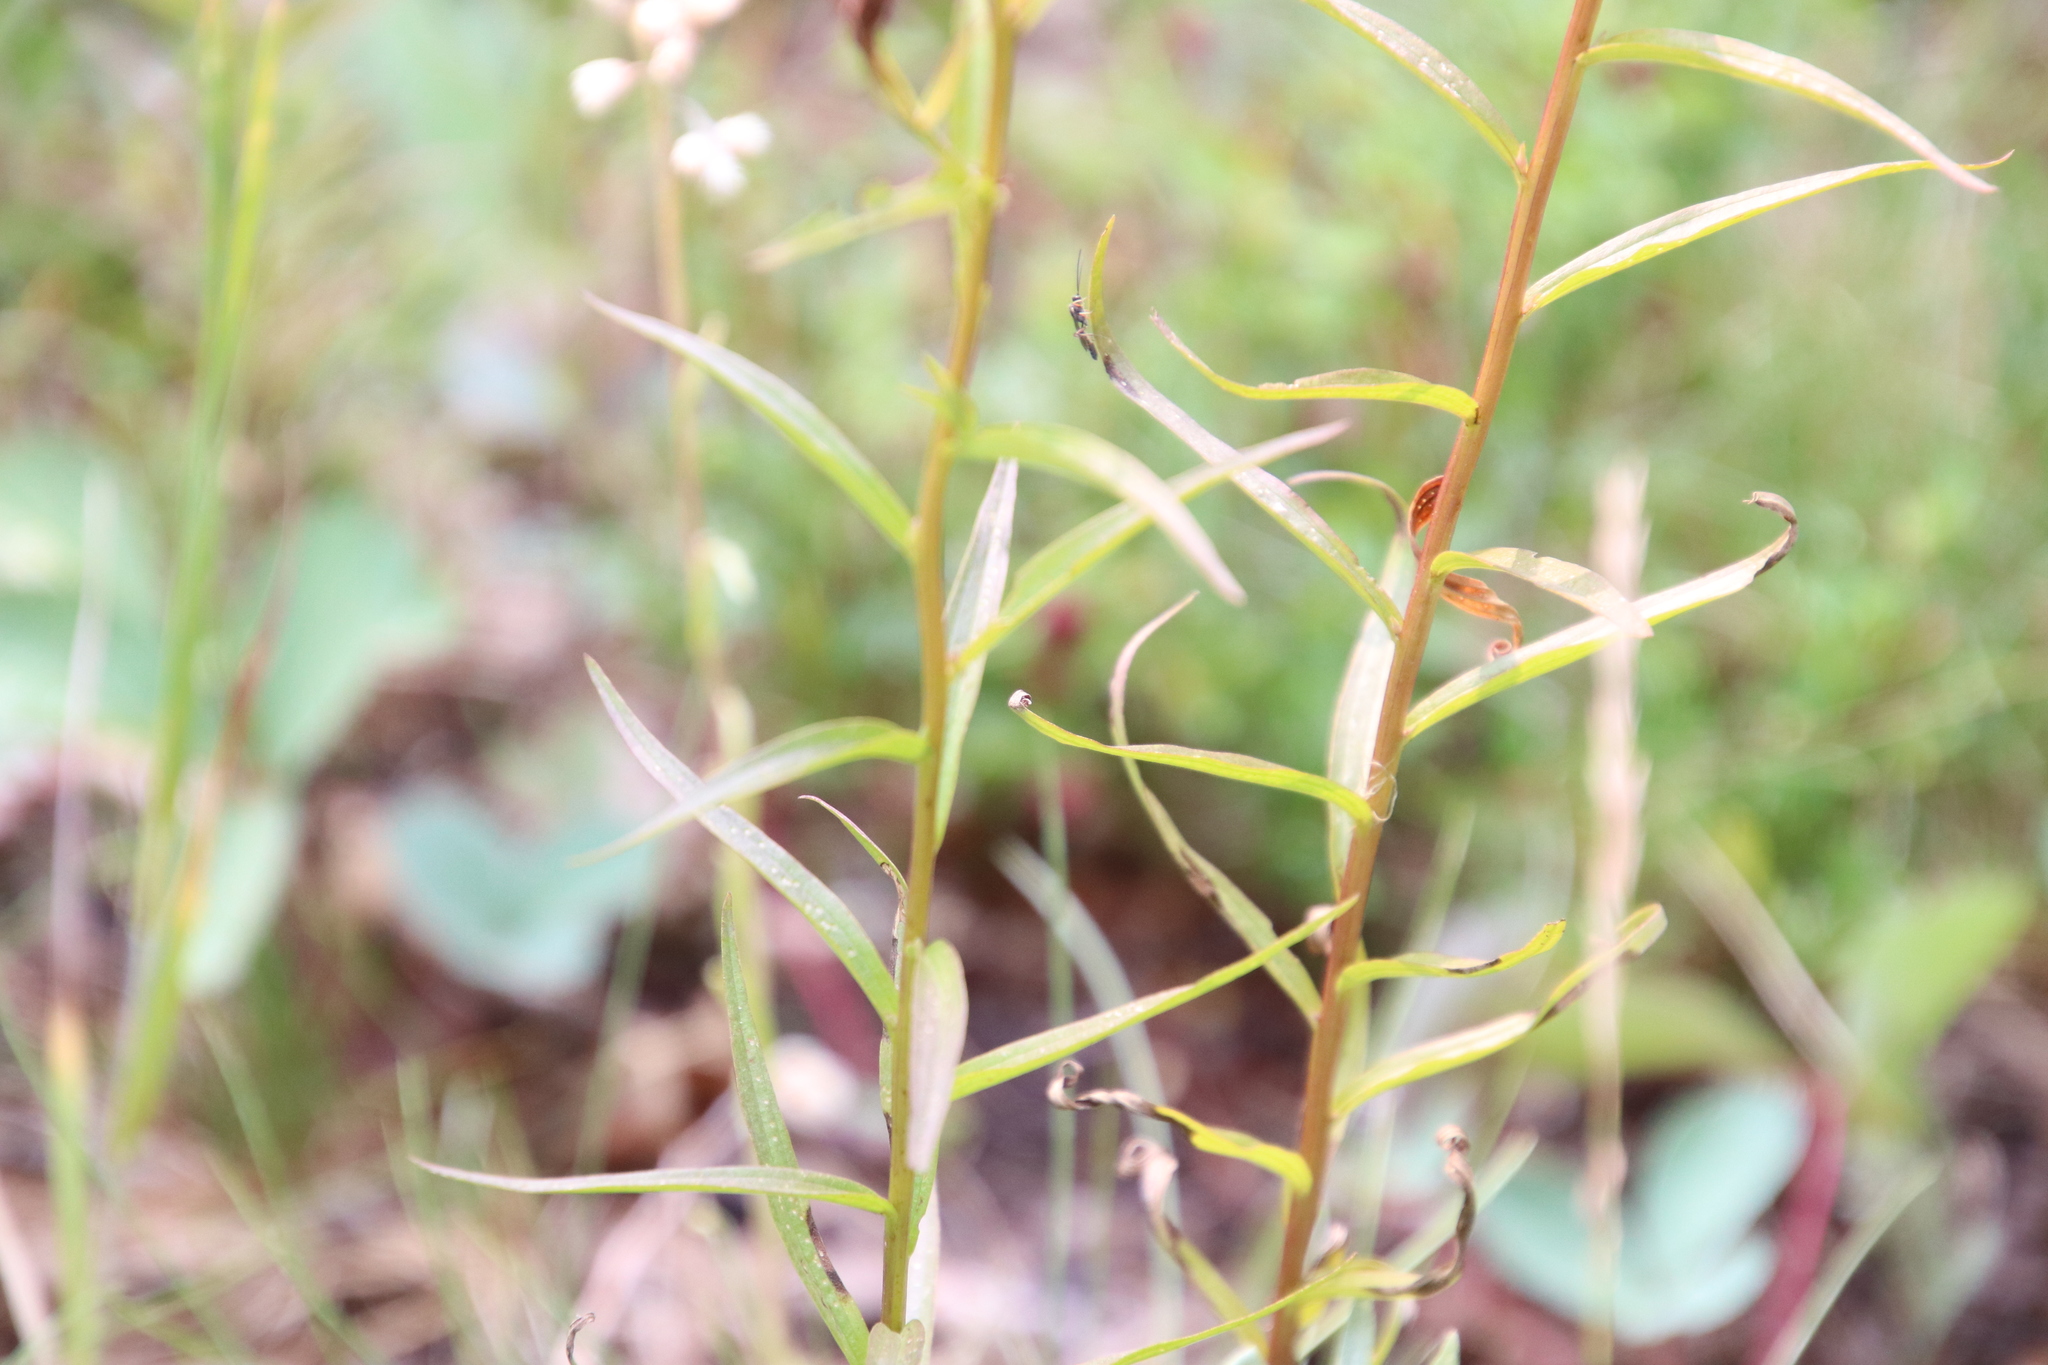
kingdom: Plantae
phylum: Tracheophyta
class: Magnoliopsida
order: Lamiales
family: Orobanchaceae
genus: Castilleja
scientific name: Castilleja miniata
